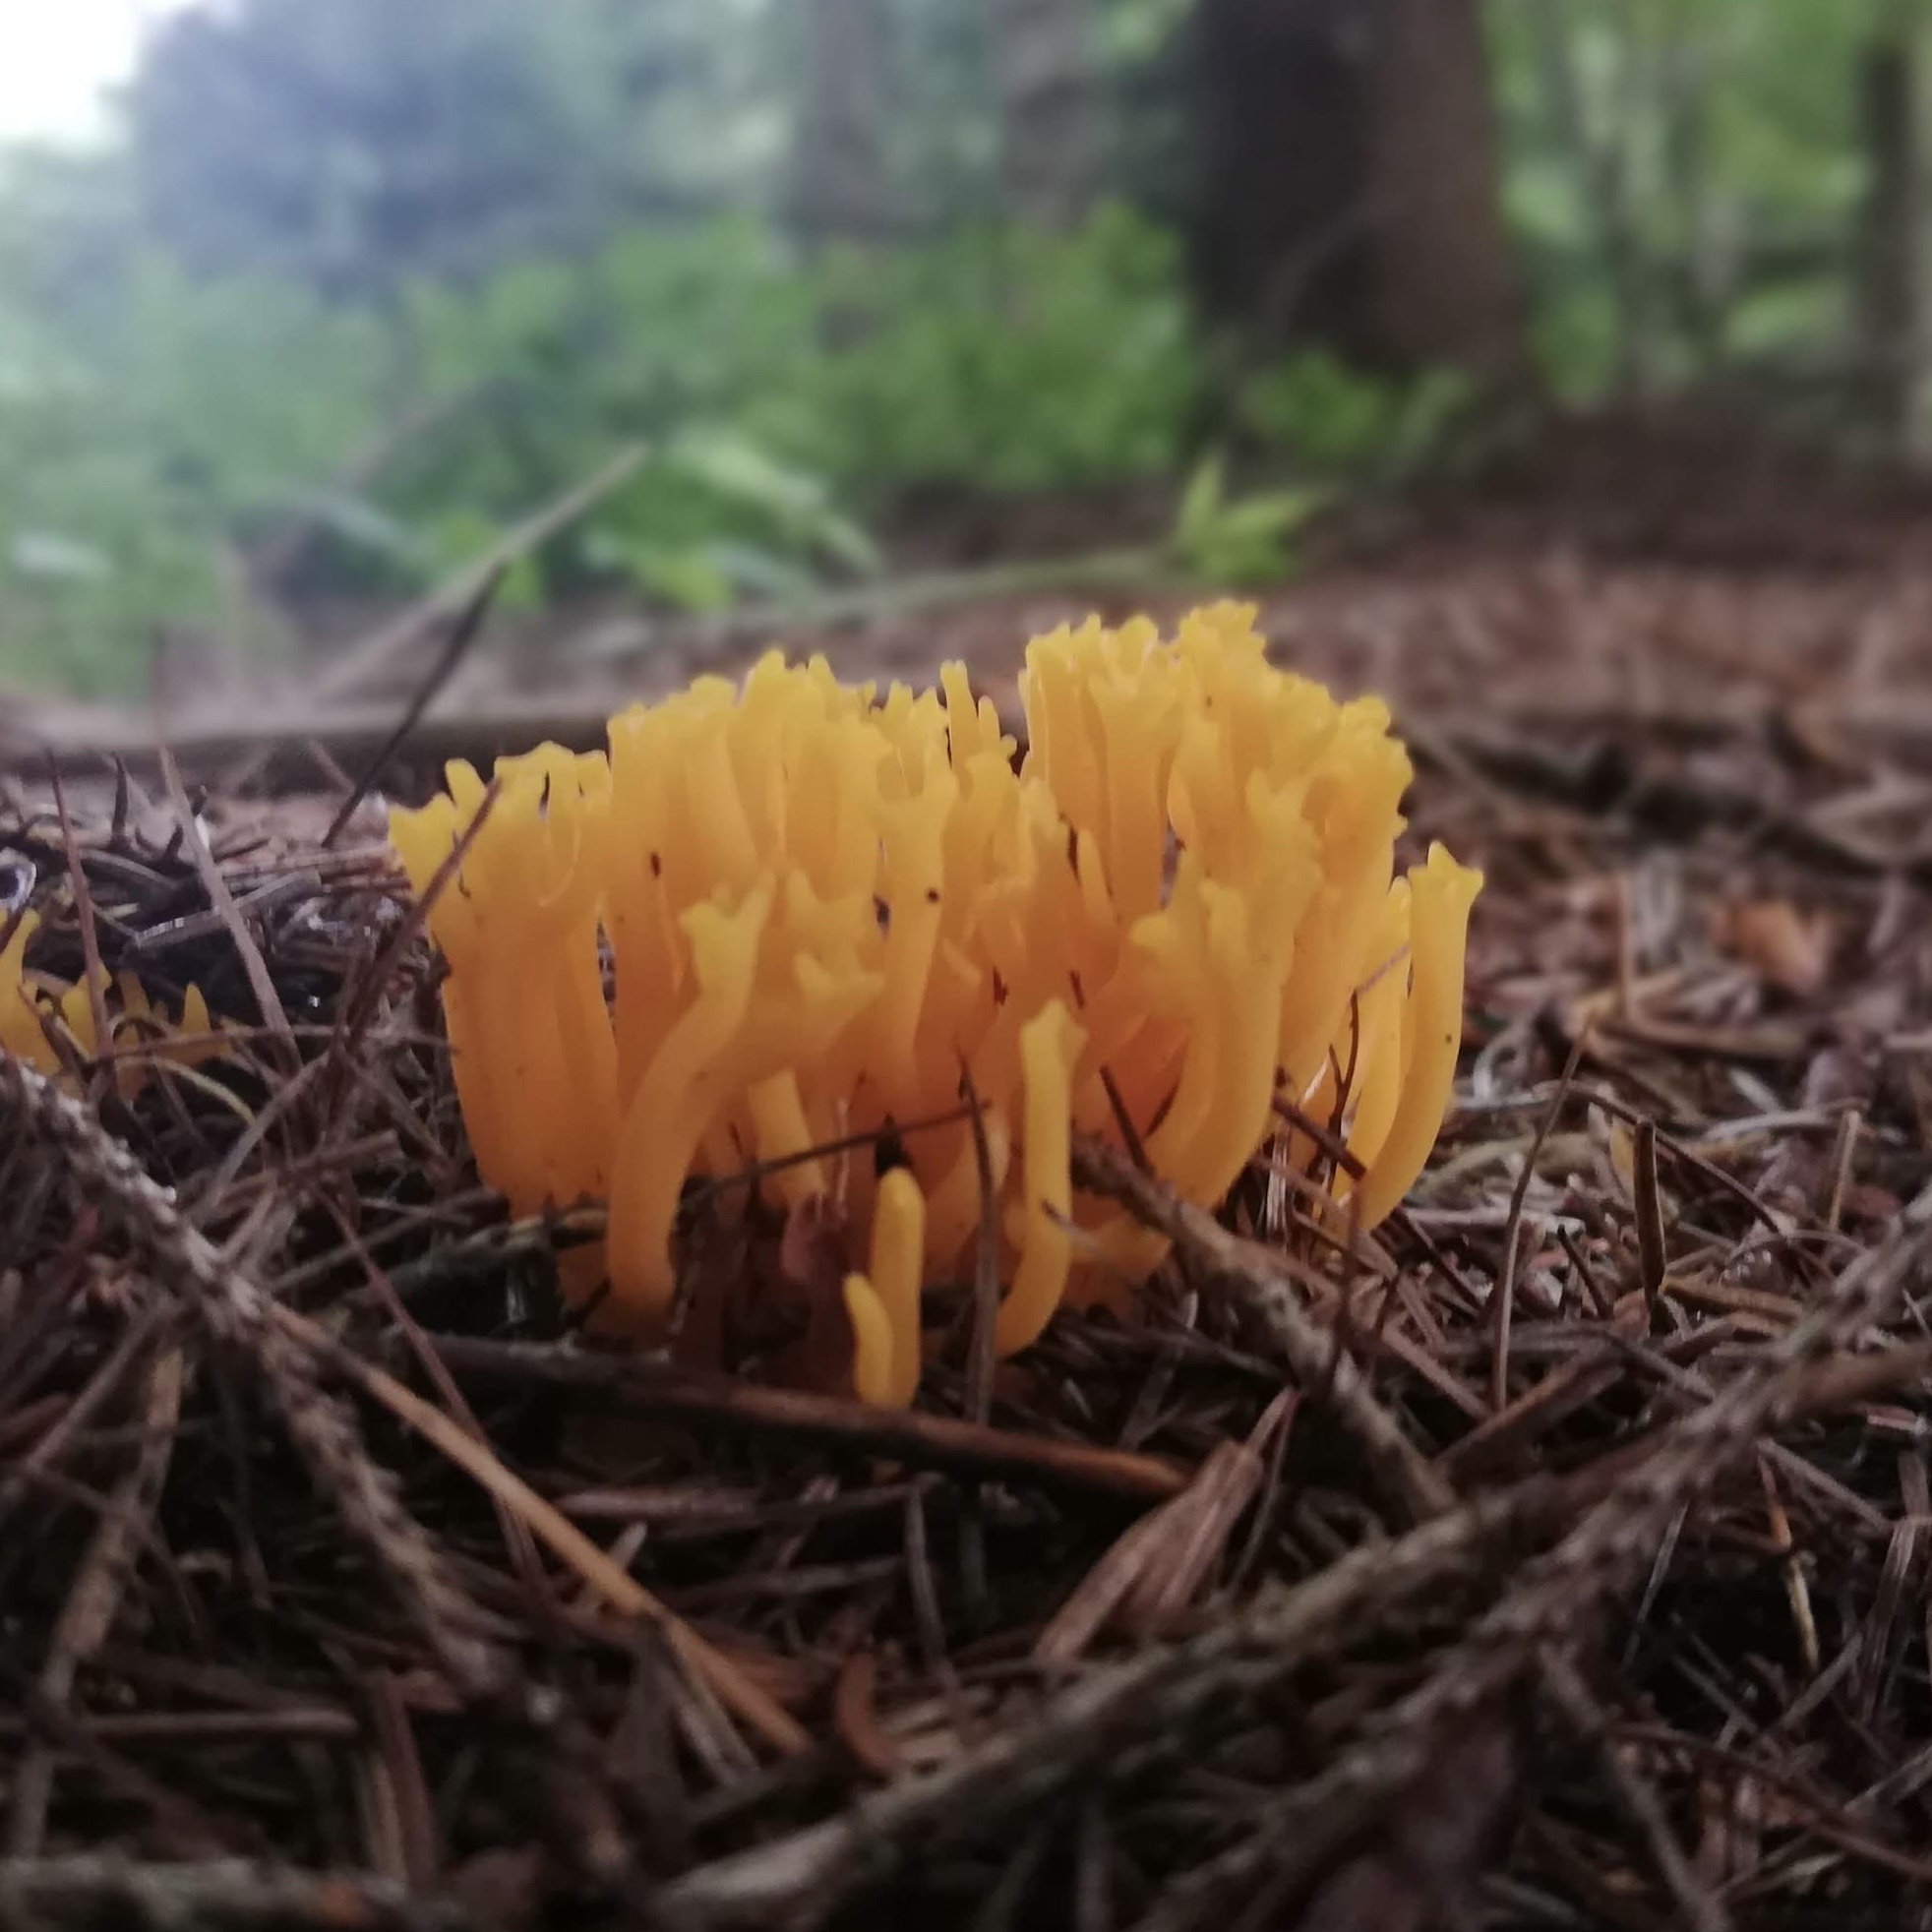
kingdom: Fungi
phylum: Basidiomycota
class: Dacrymycetes
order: Dacrymycetales
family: Dacrymycetaceae
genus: Calocera
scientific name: Calocera viscosa
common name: Yellow stagshorn
